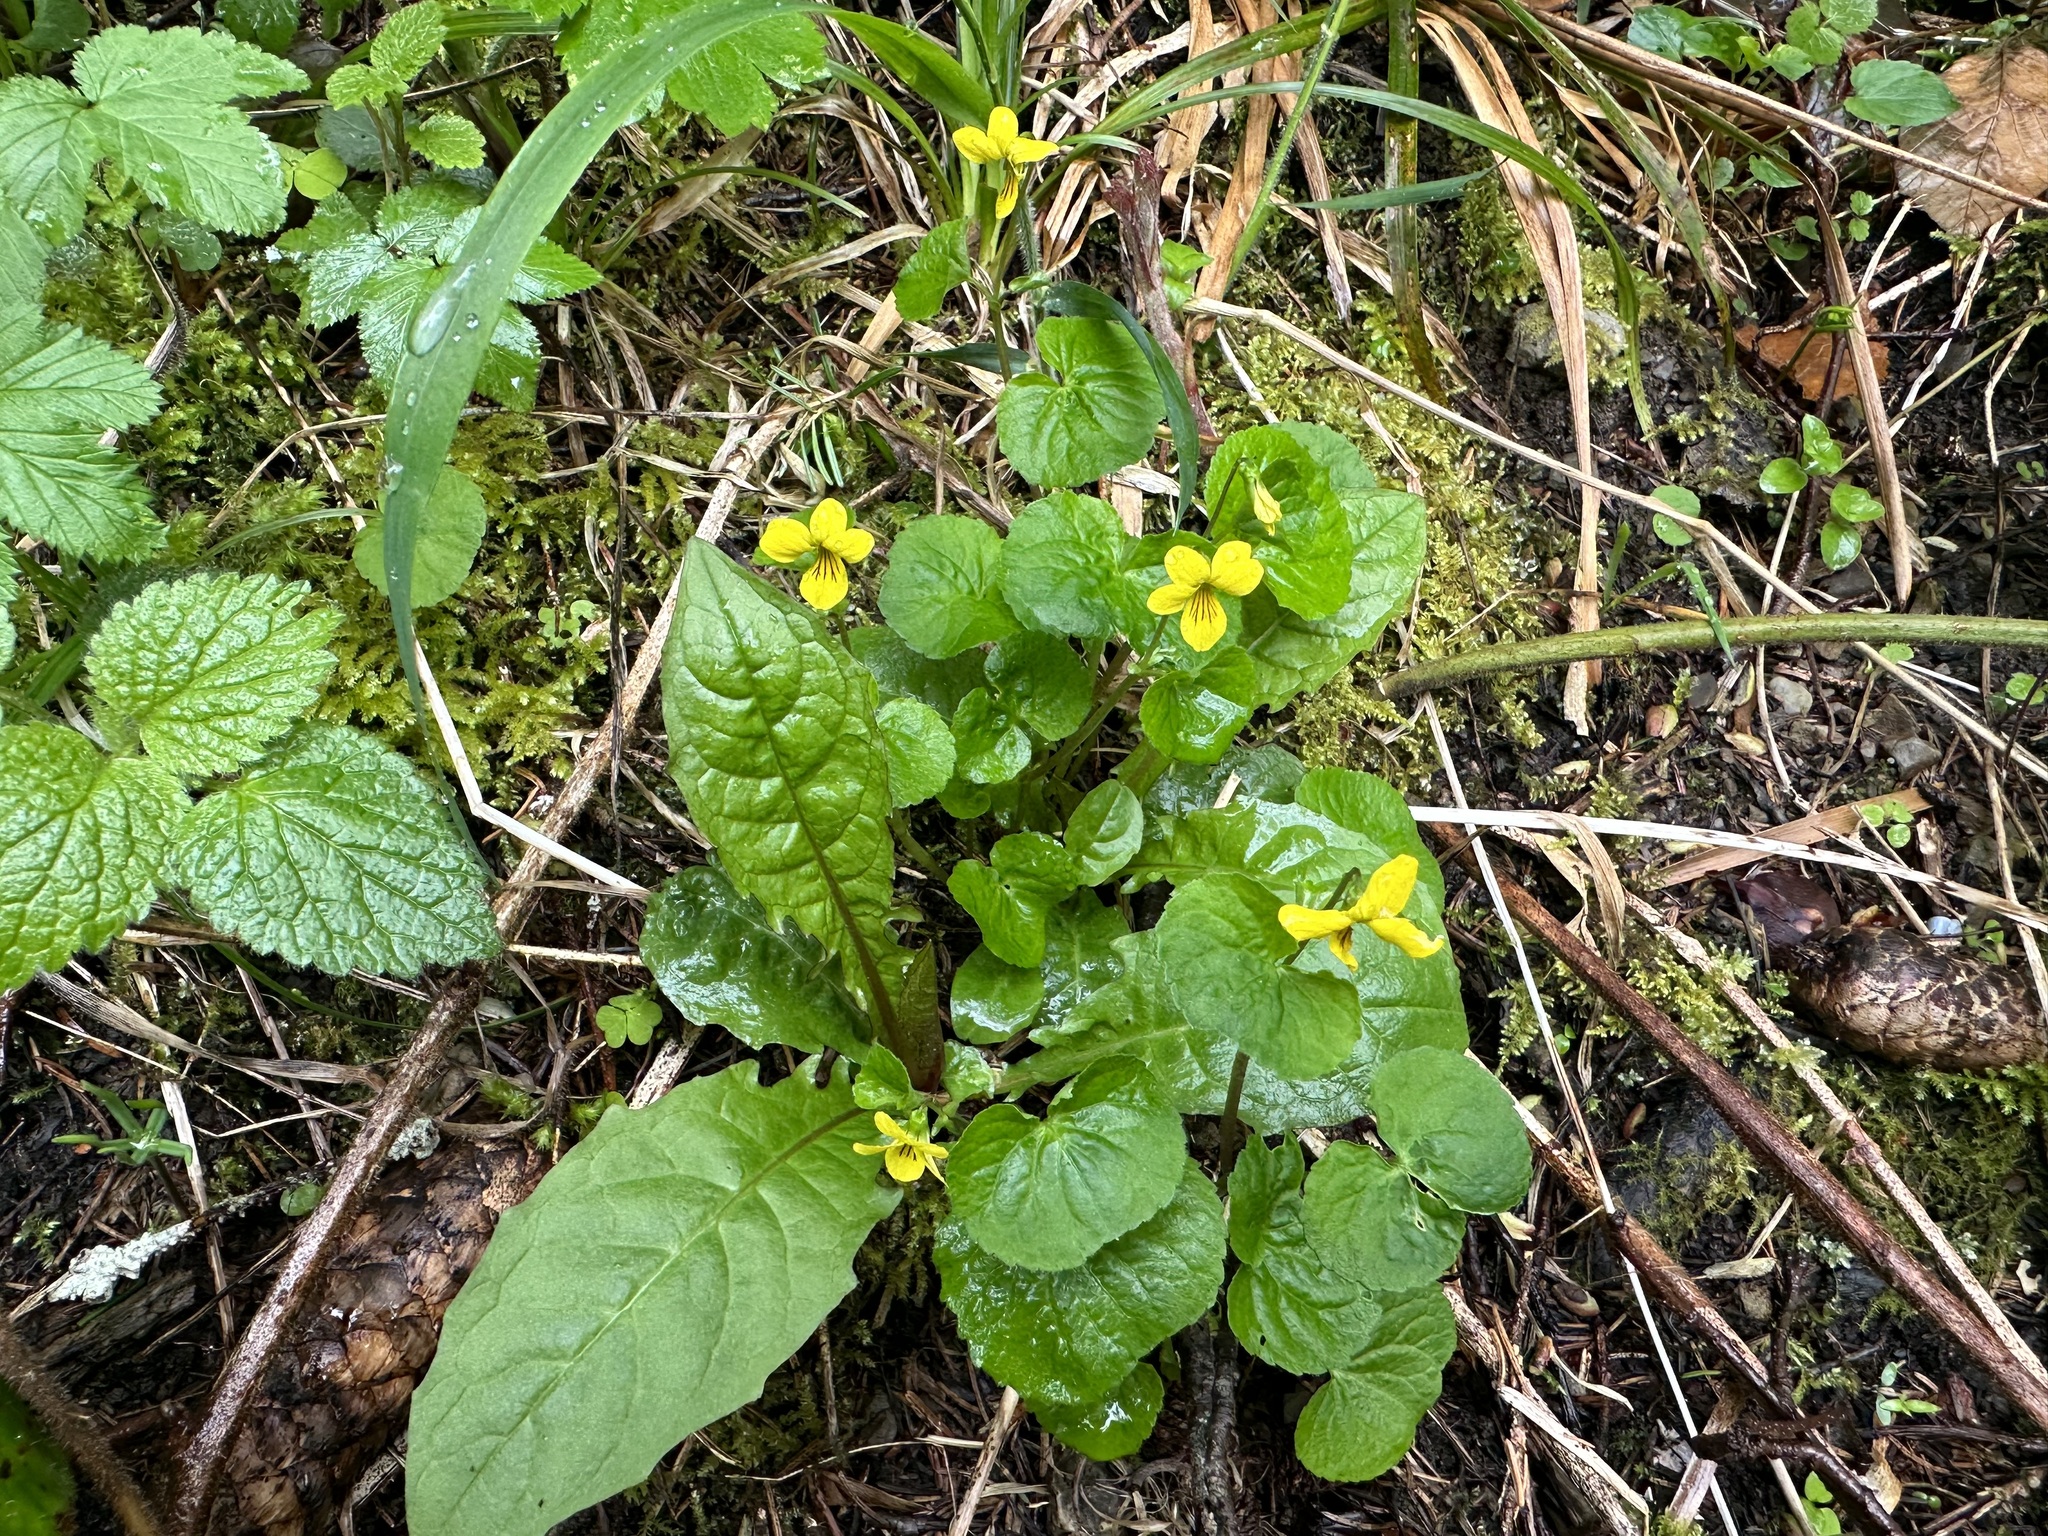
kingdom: Plantae
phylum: Tracheophyta
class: Magnoliopsida
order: Malpighiales
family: Violaceae
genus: Viola
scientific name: Viola biflora
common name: Alpine yellow violet
